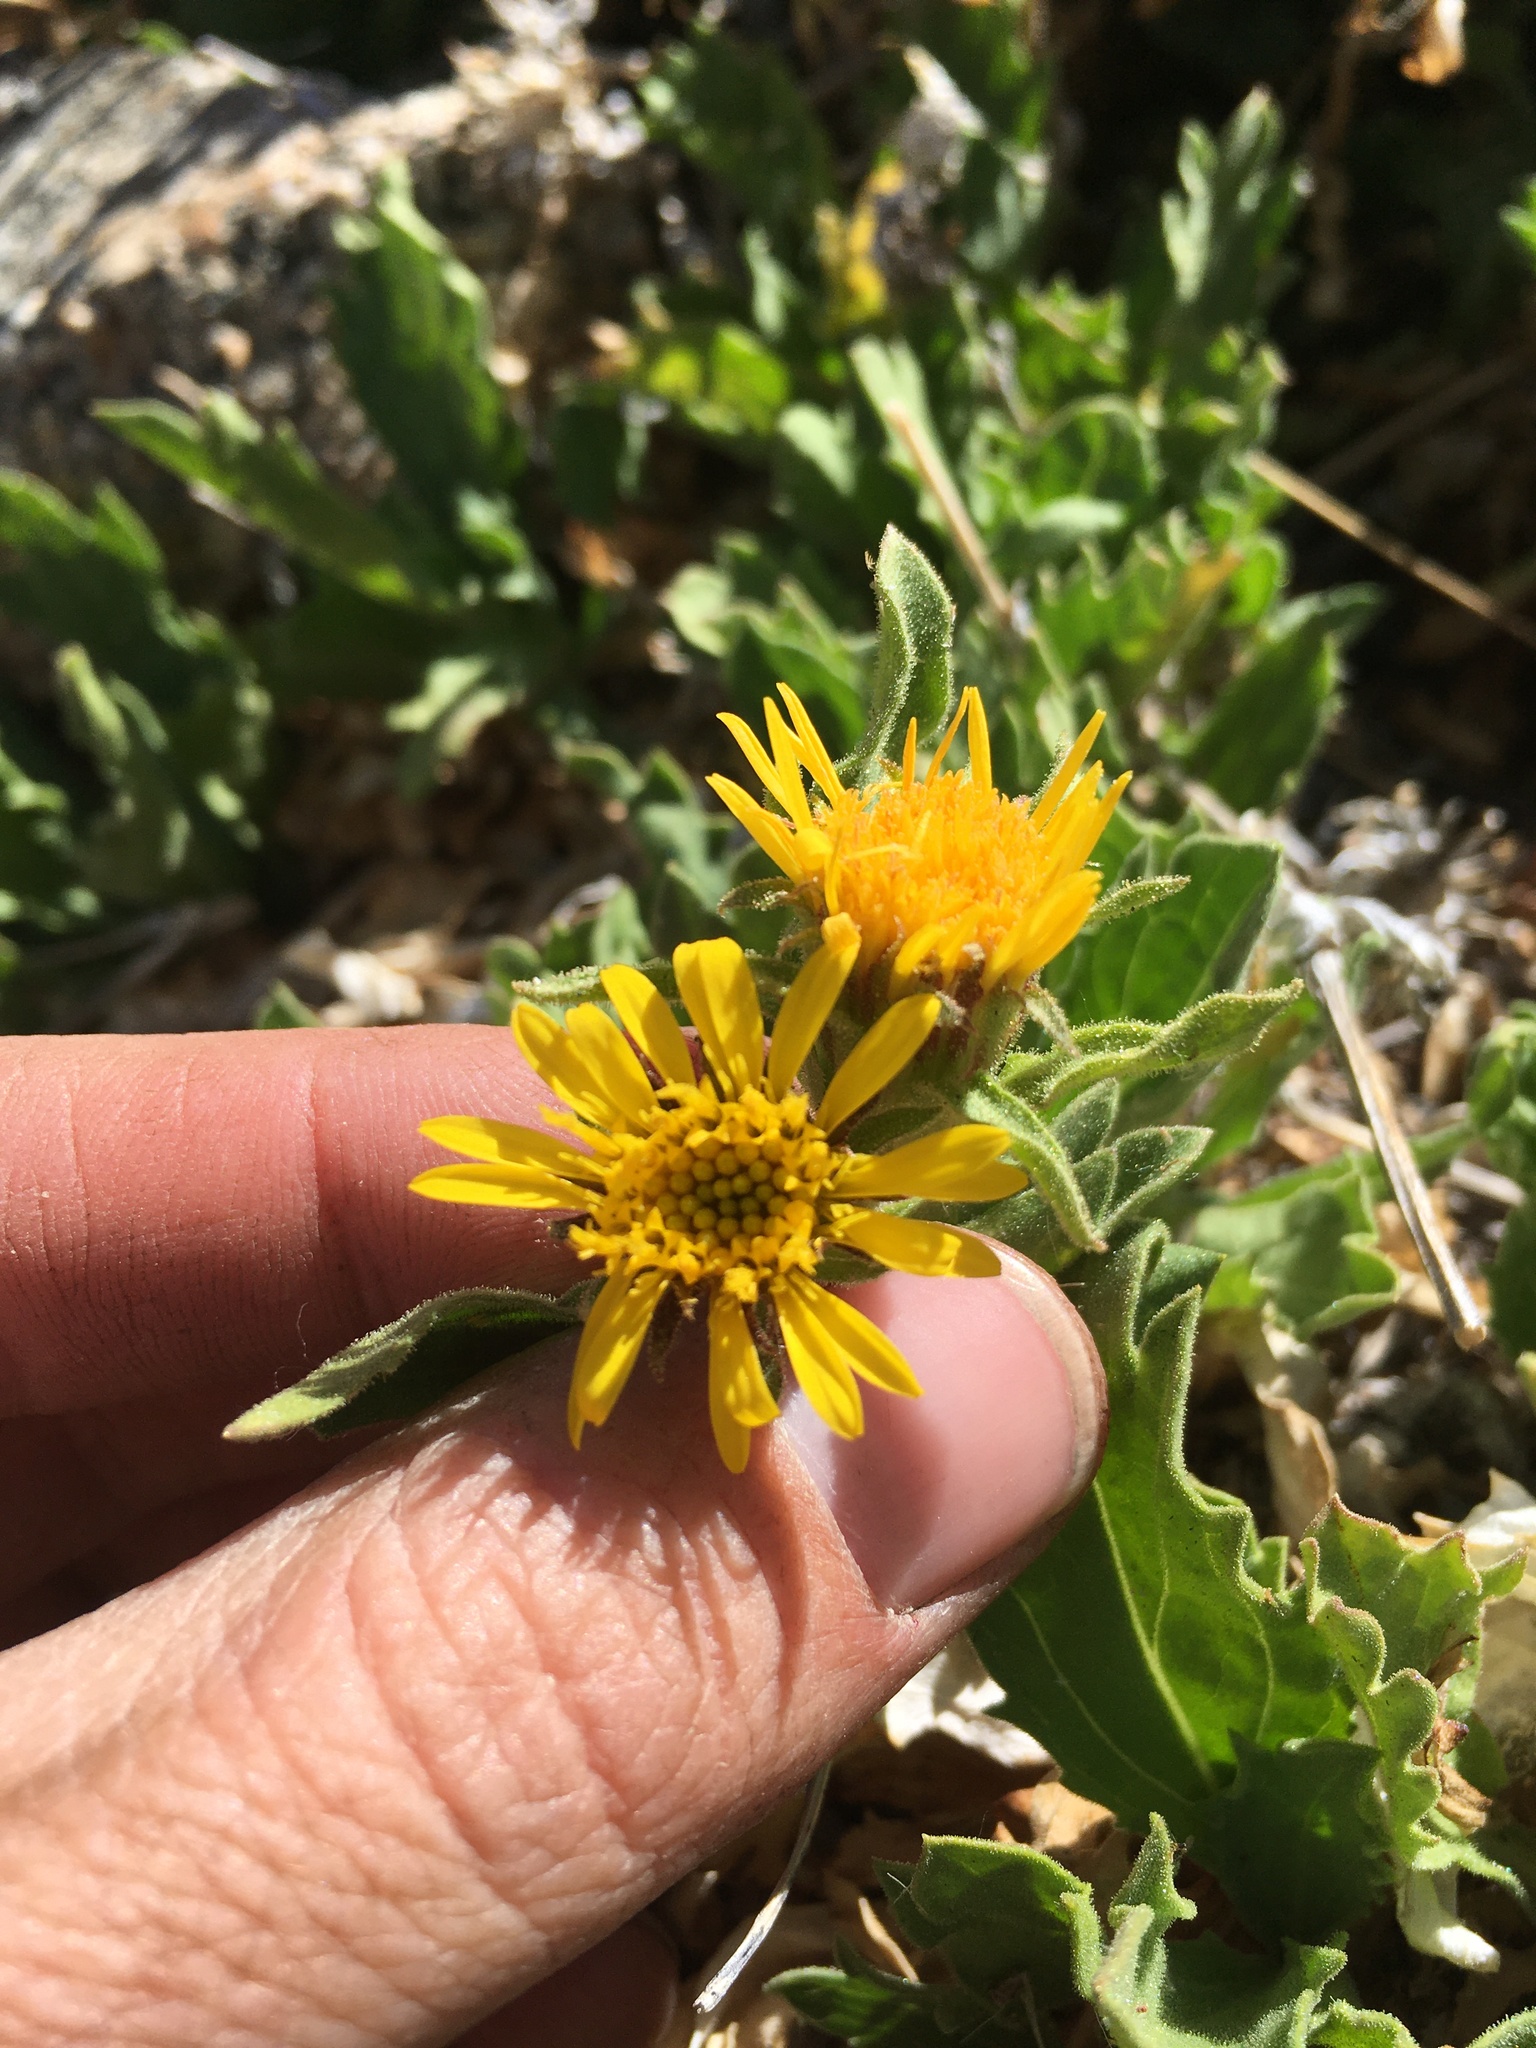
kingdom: Plantae
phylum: Tracheophyta
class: Magnoliopsida
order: Asterales
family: Asteraceae
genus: Toiyabea
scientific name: Toiyabea peirsonii
